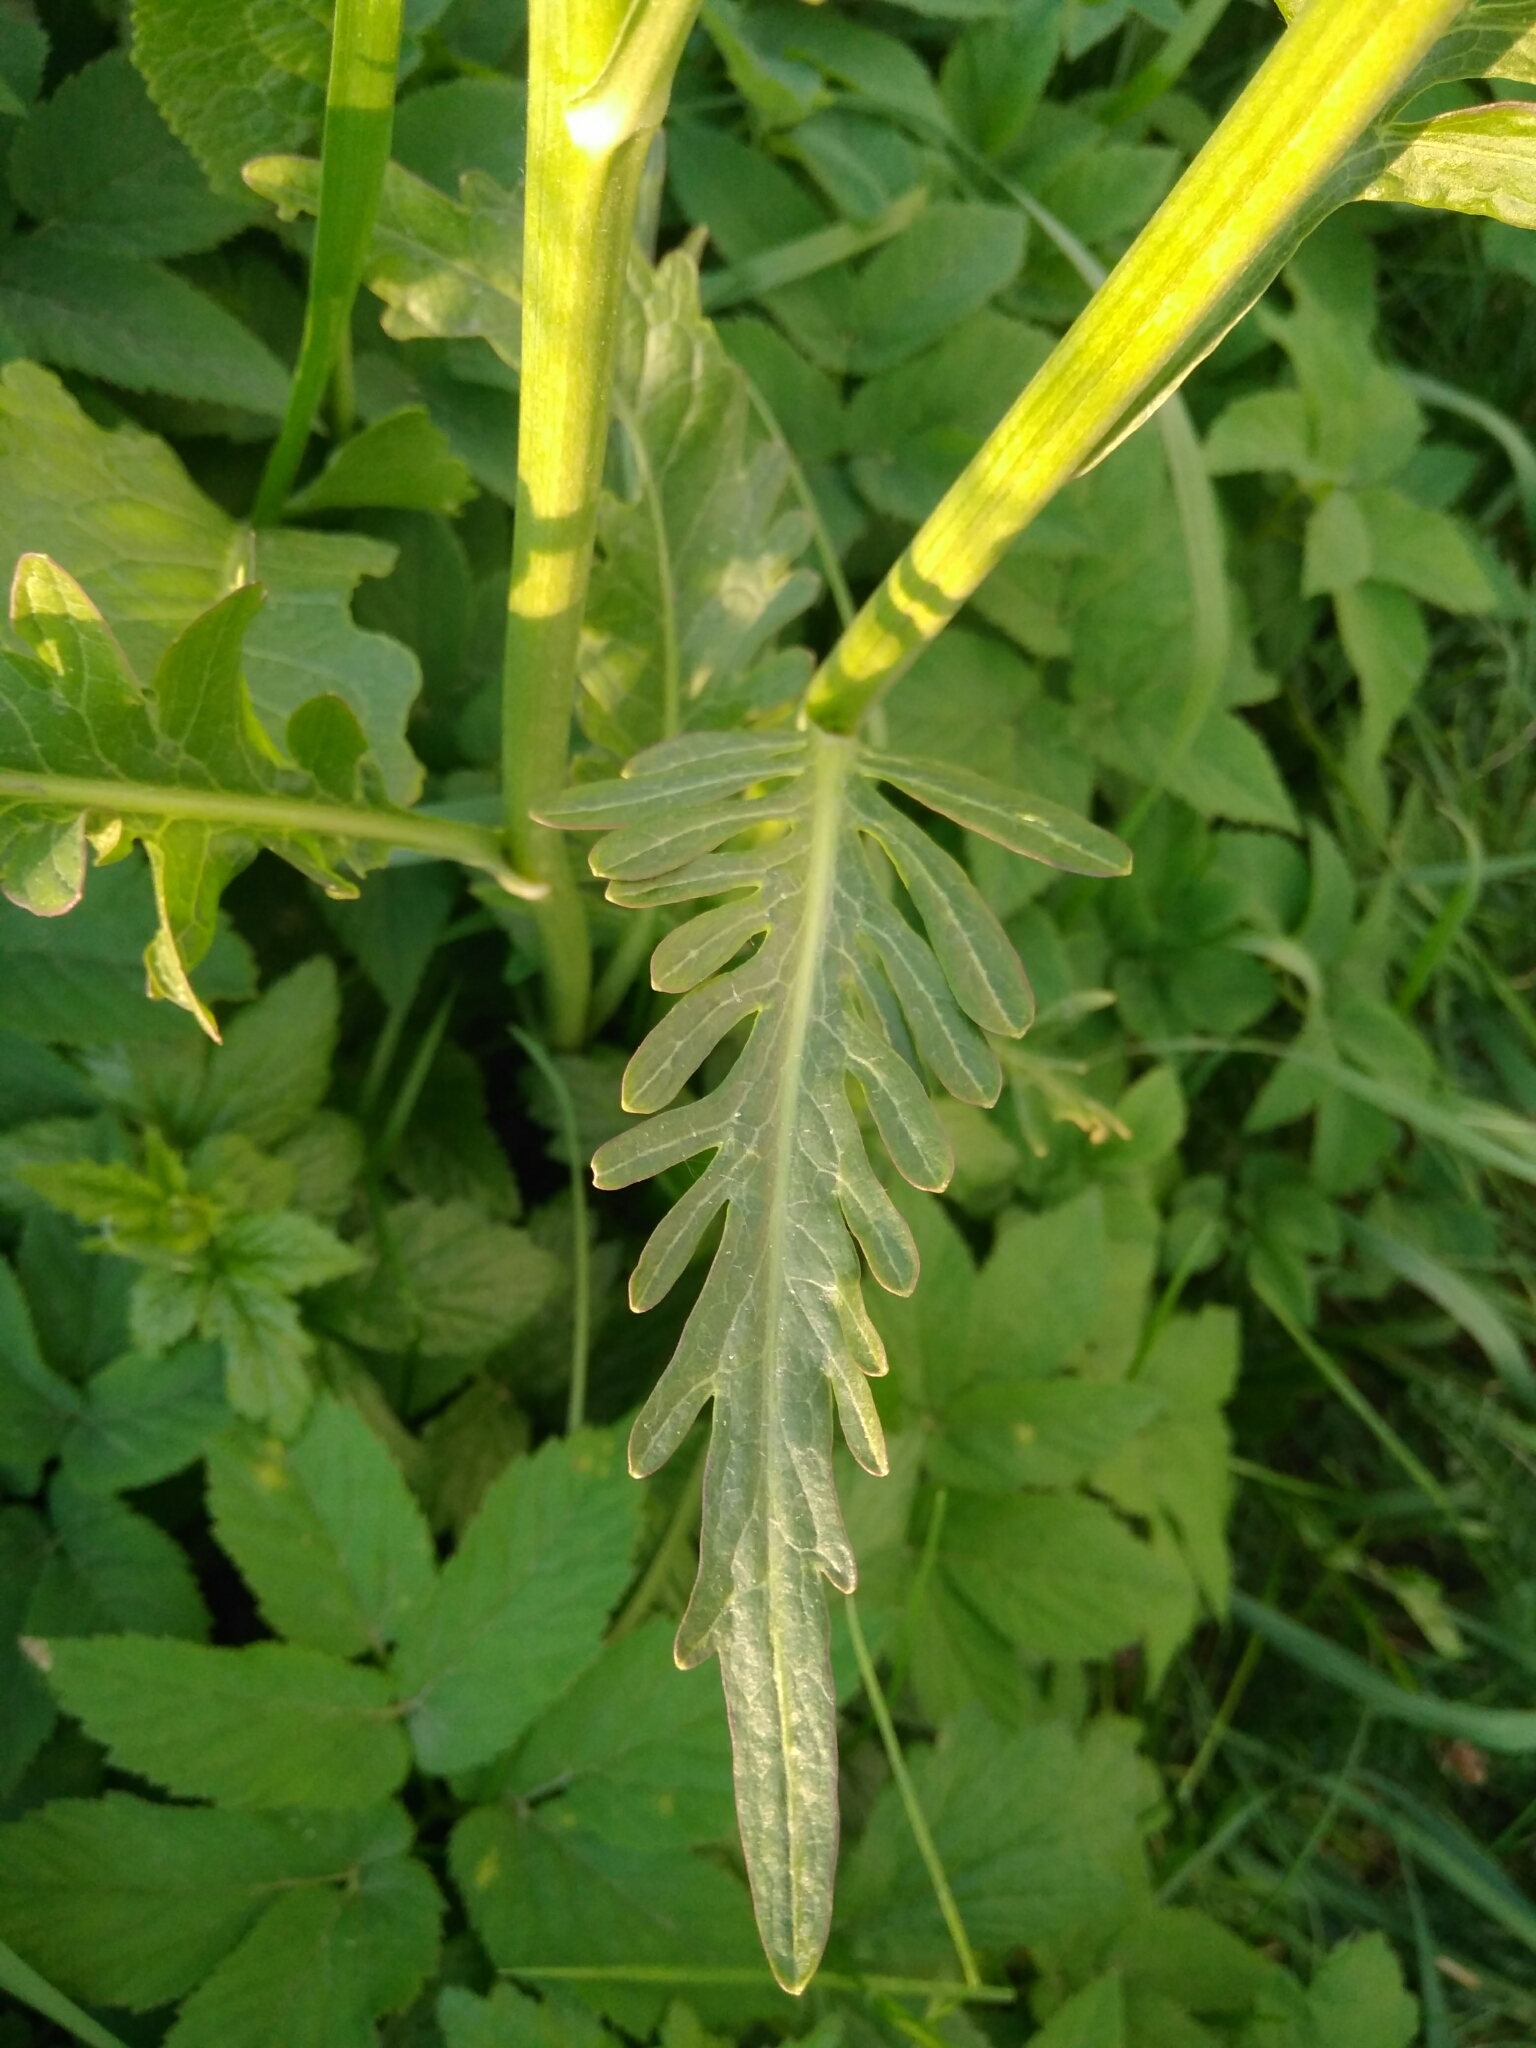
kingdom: Plantae
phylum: Tracheophyta
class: Magnoliopsida
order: Brassicales
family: Brassicaceae
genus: Armoracia
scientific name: Armoracia rusticana
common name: Horseradish
